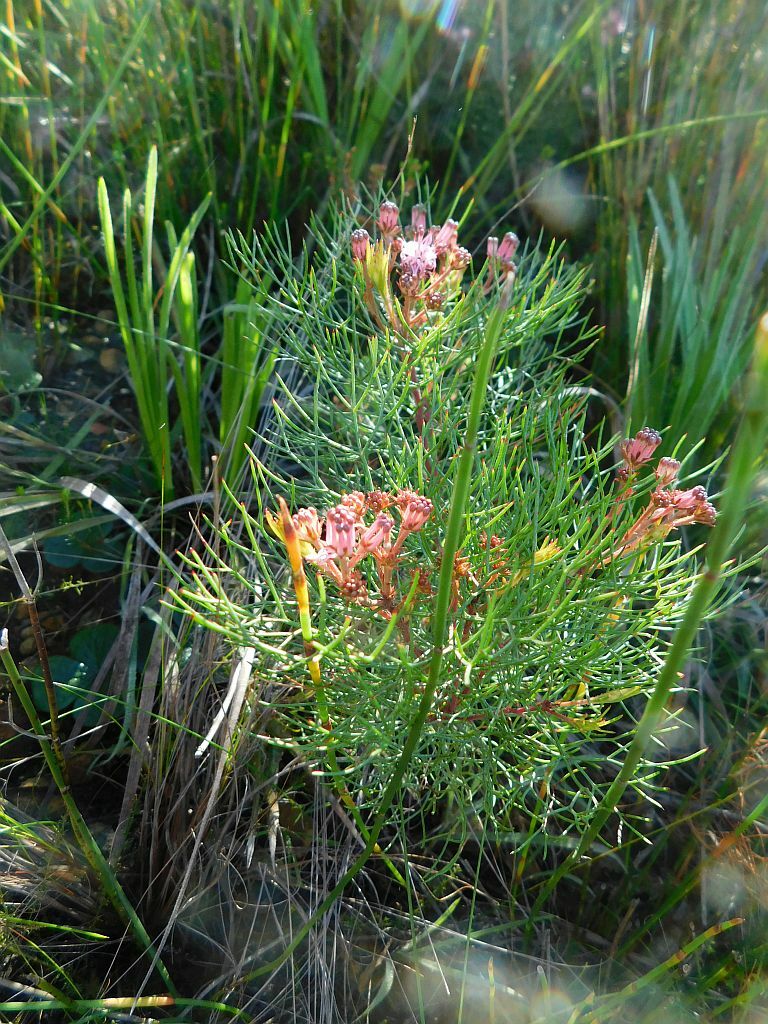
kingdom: Plantae
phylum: Tracheophyta
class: Magnoliopsida
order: Proteales
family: Proteaceae
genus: Serruria
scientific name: Serruria fasciflora
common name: Common pin spiderhead
